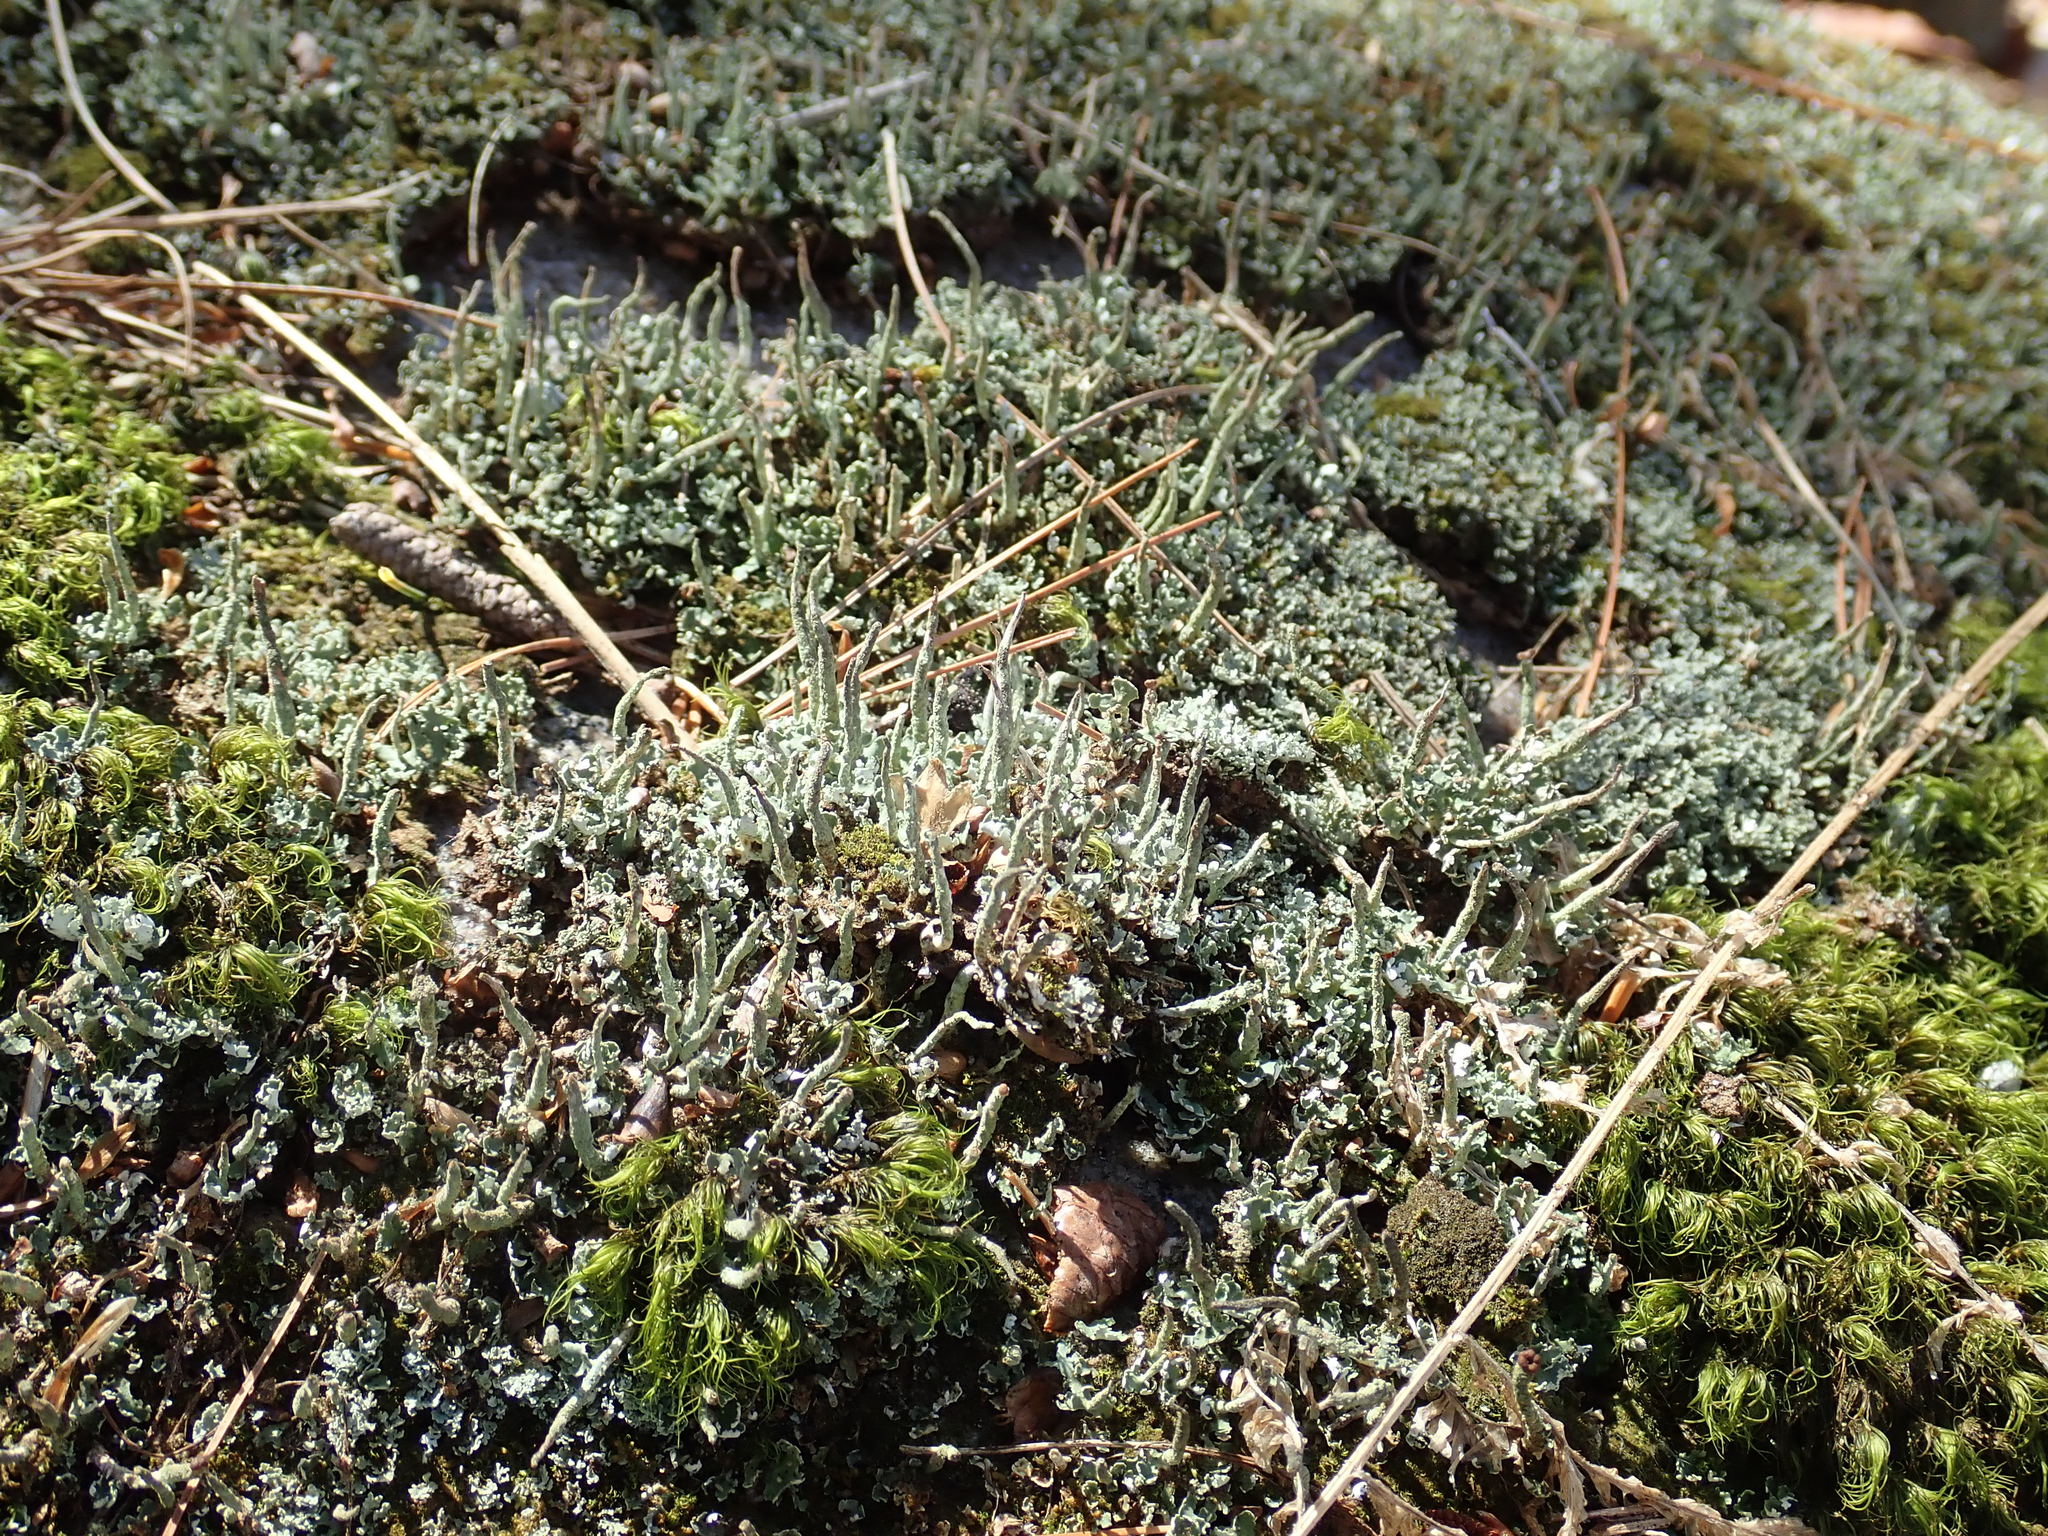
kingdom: Fungi
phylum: Ascomycota
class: Lecanoromycetes
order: Lecanorales
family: Cladoniaceae
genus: Cladonia
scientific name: Cladonia coniocraea
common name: Common powderhorn
